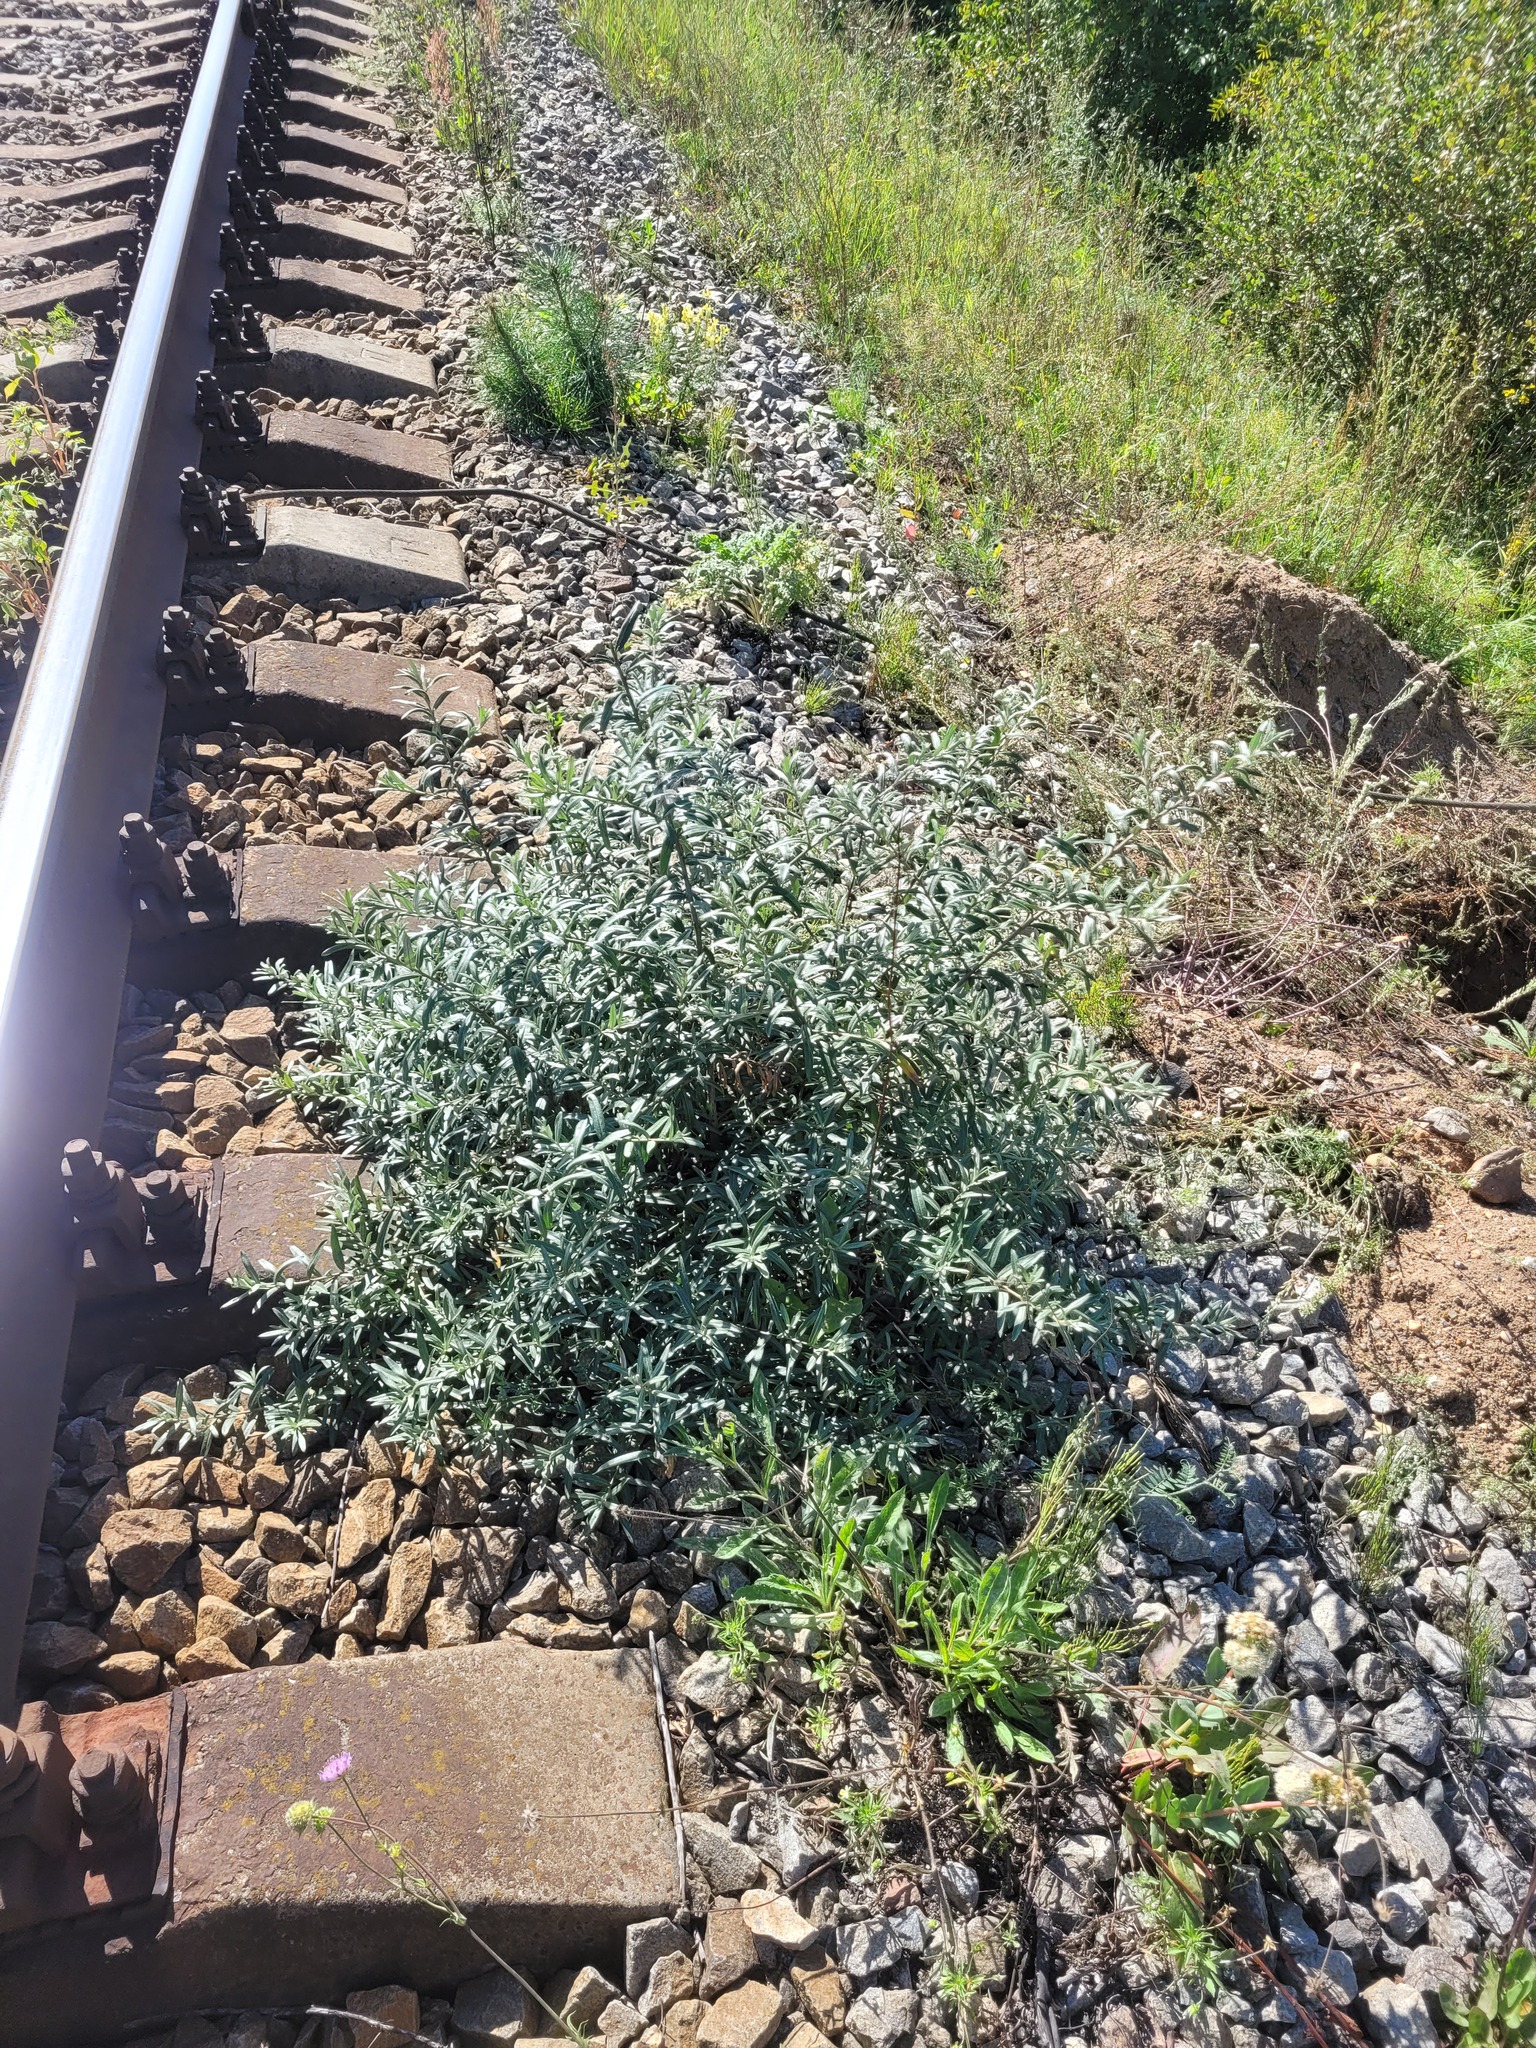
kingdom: Plantae
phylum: Tracheophyta
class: Magnoliopsida
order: Rosales
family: Elaeagnaceae
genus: Hippophae
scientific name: Hippophae rhamnoides
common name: Sea-buckthorn
